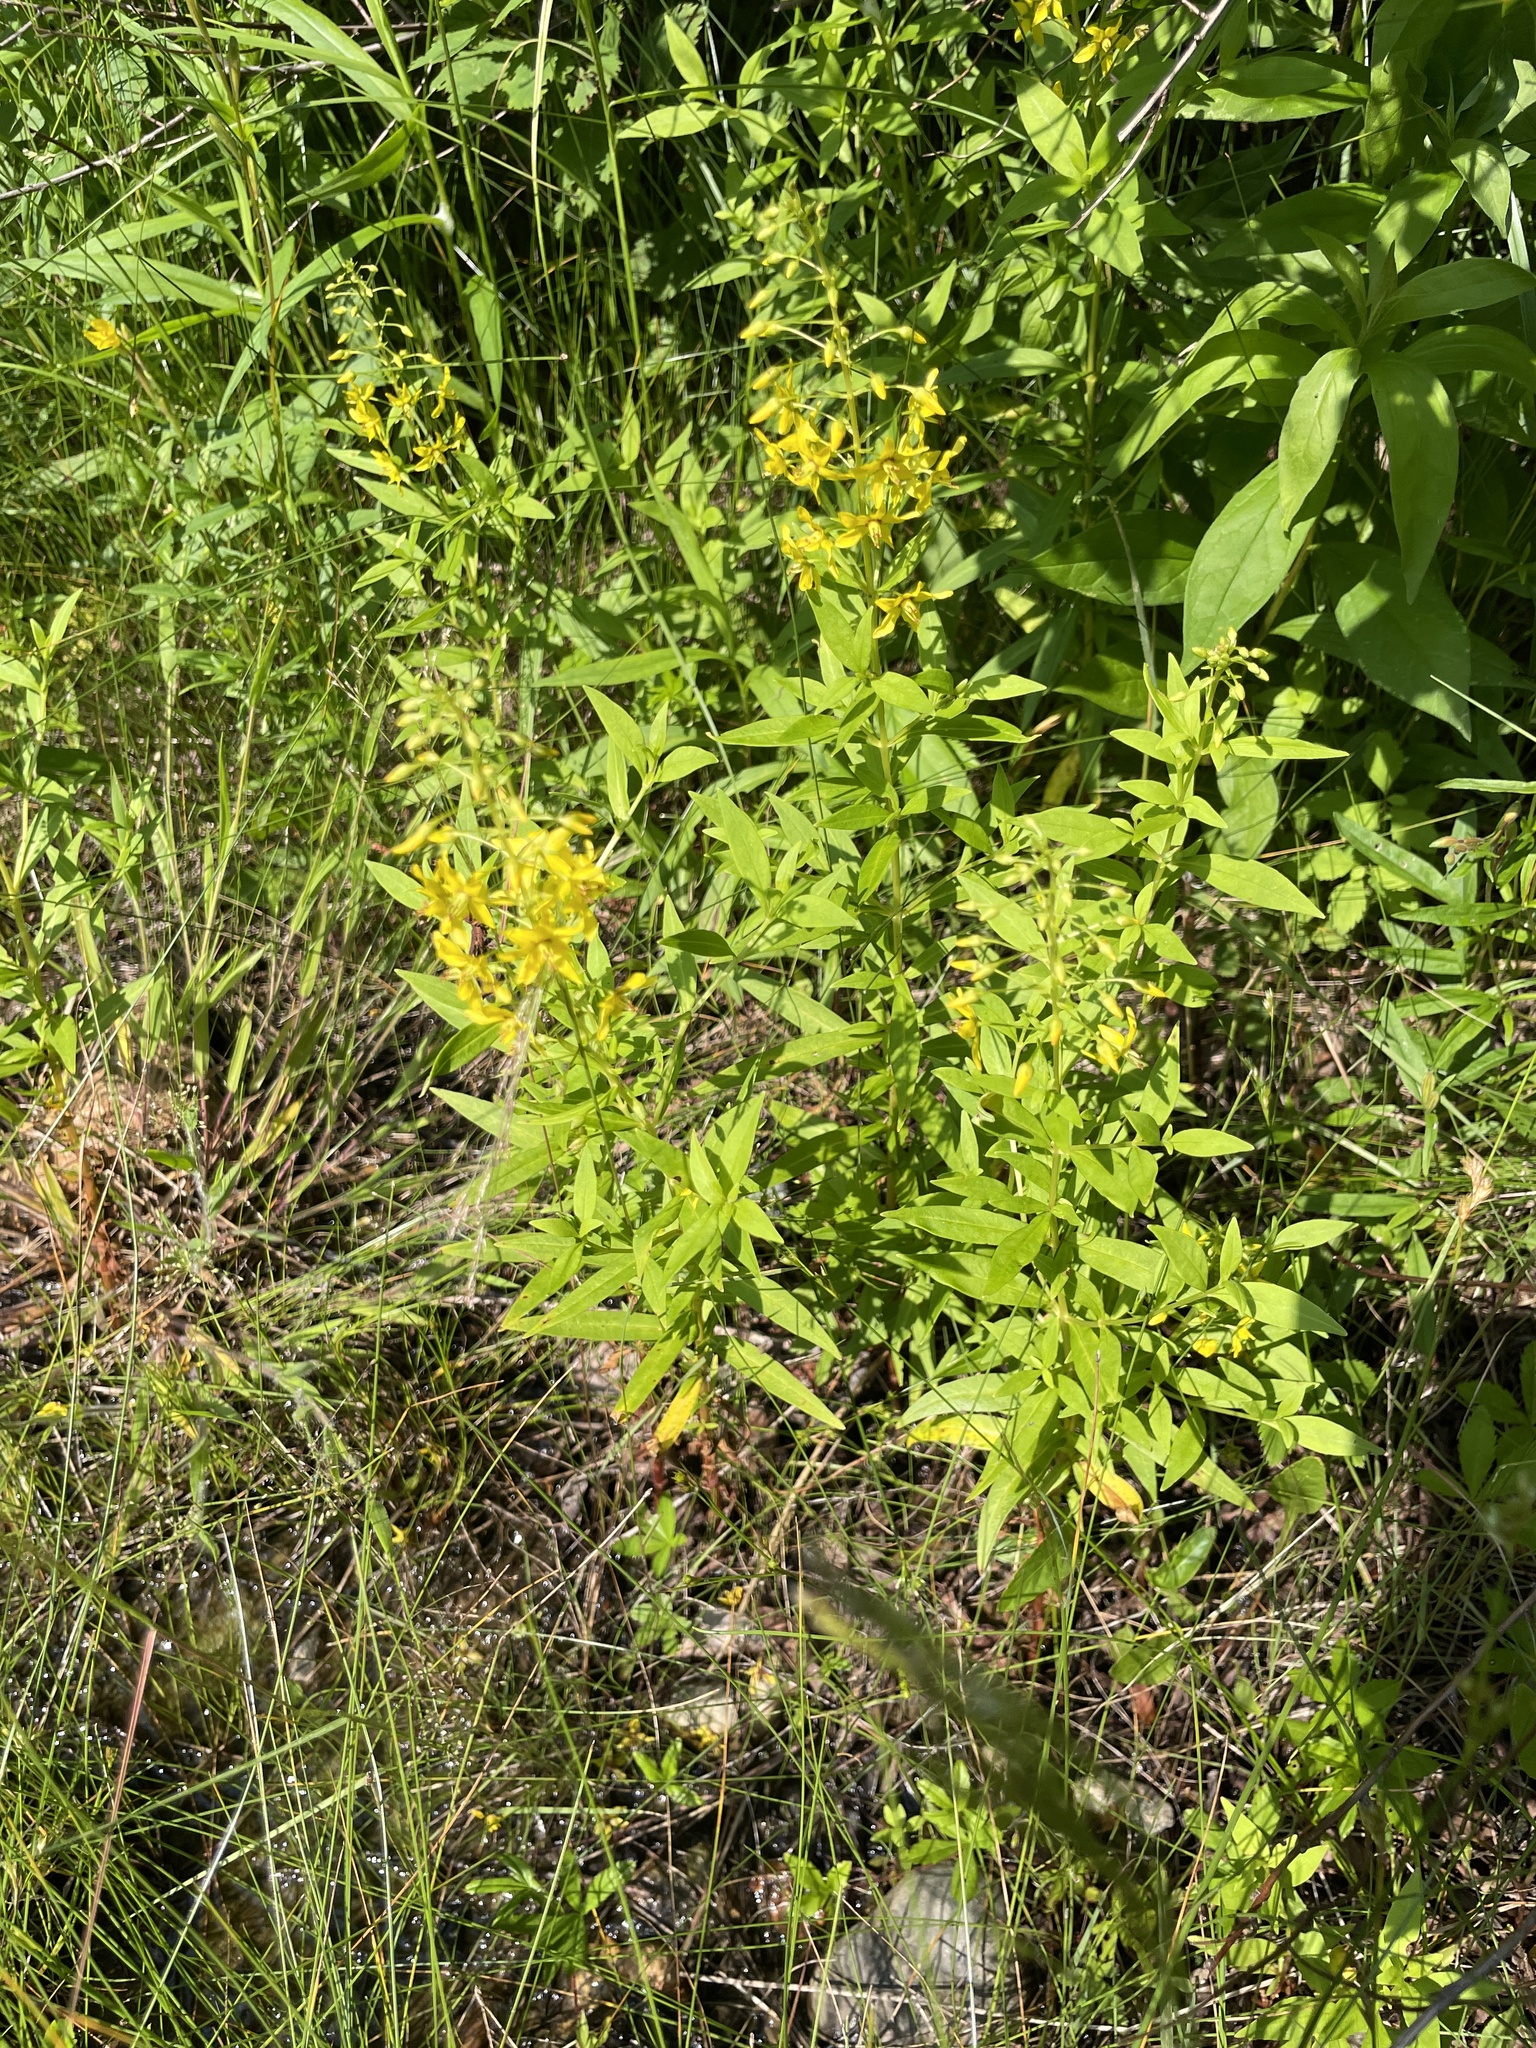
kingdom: Plantae
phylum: Tracheophyta
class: Magnoliopsida
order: Ericales
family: Primulaceae
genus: Lysimachia
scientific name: Lysimachia terrestris
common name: Lake loosestrife
